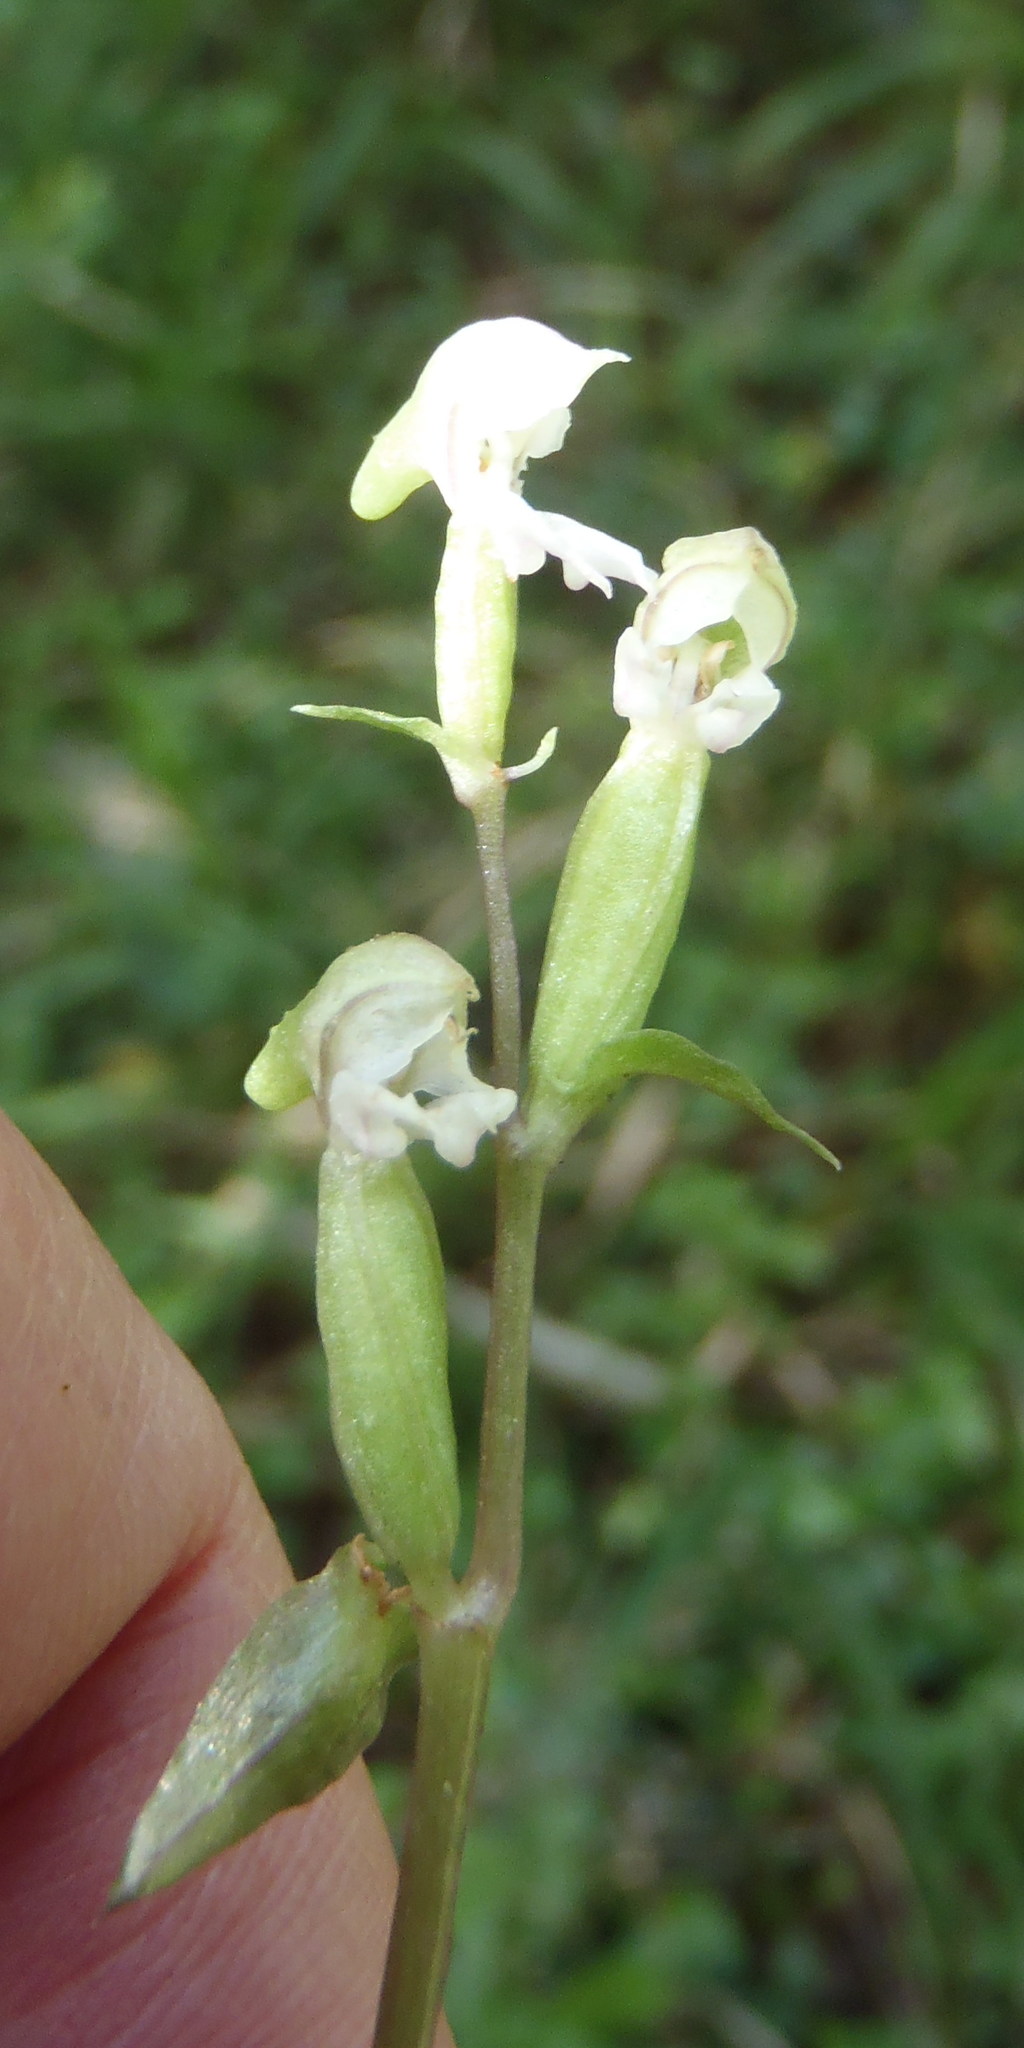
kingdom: Plantae
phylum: Tracheophyta
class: Liliopsida
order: Asparagales
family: Orchidaceae
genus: Disperis
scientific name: Disperis disiformis
